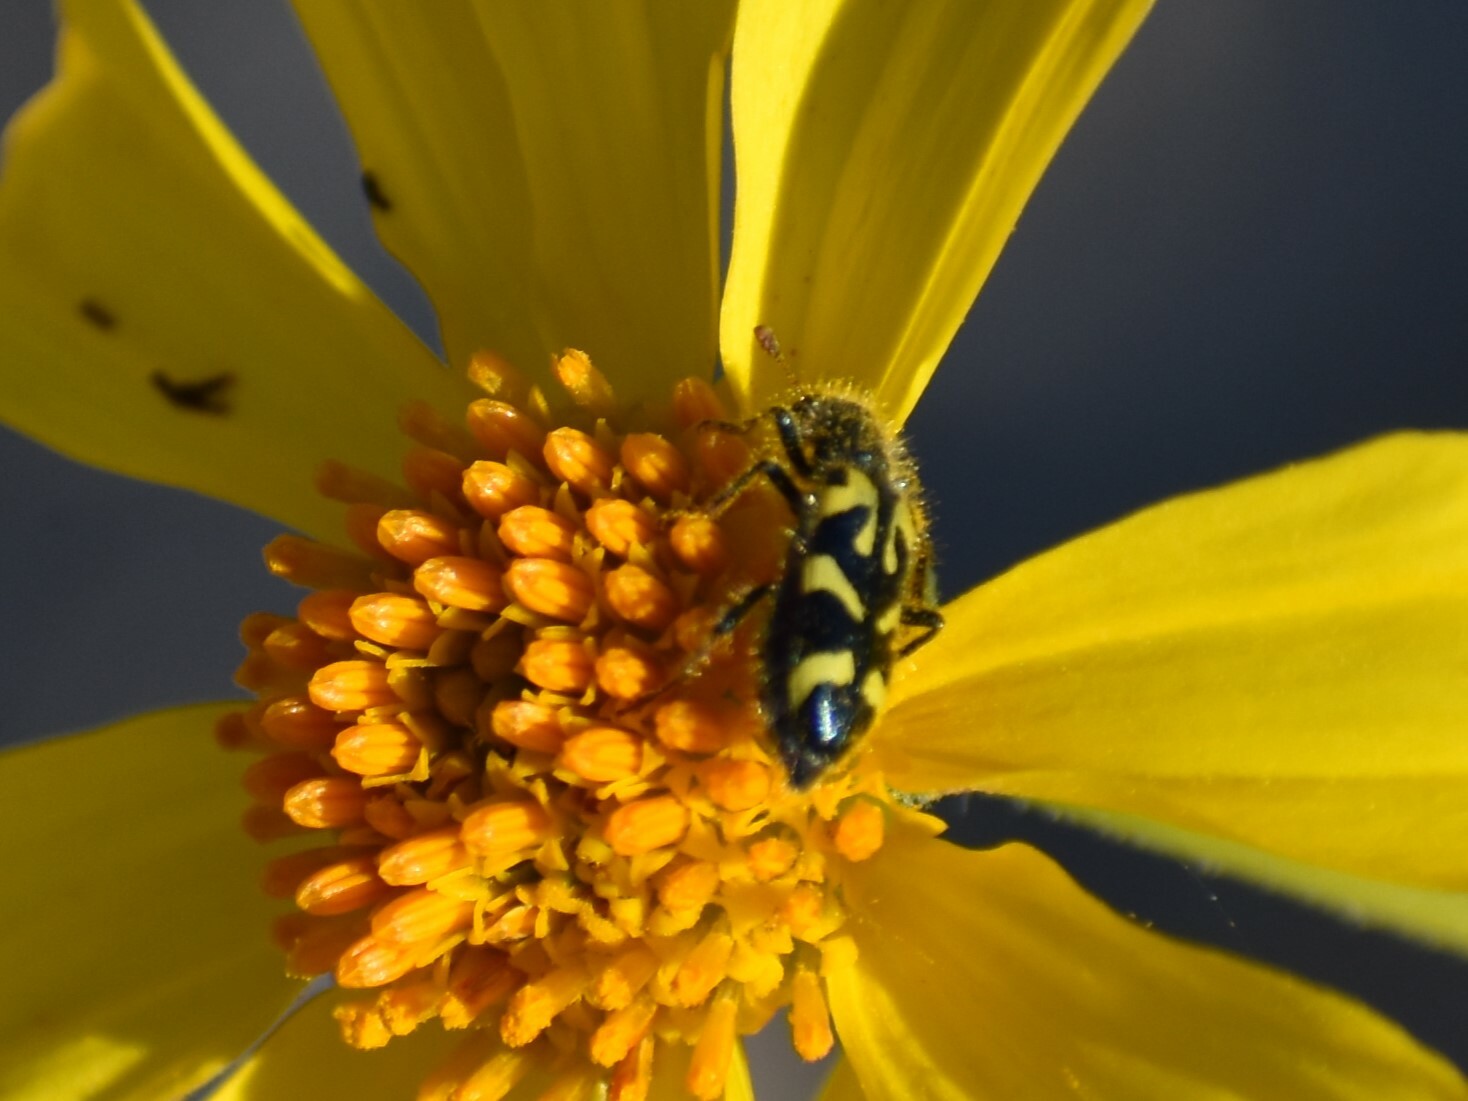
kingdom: Animalia
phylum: Arthropoda
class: Insecta
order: Coleoptera
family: Cleridae
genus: Trichodes
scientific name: Trichodes ornatus
